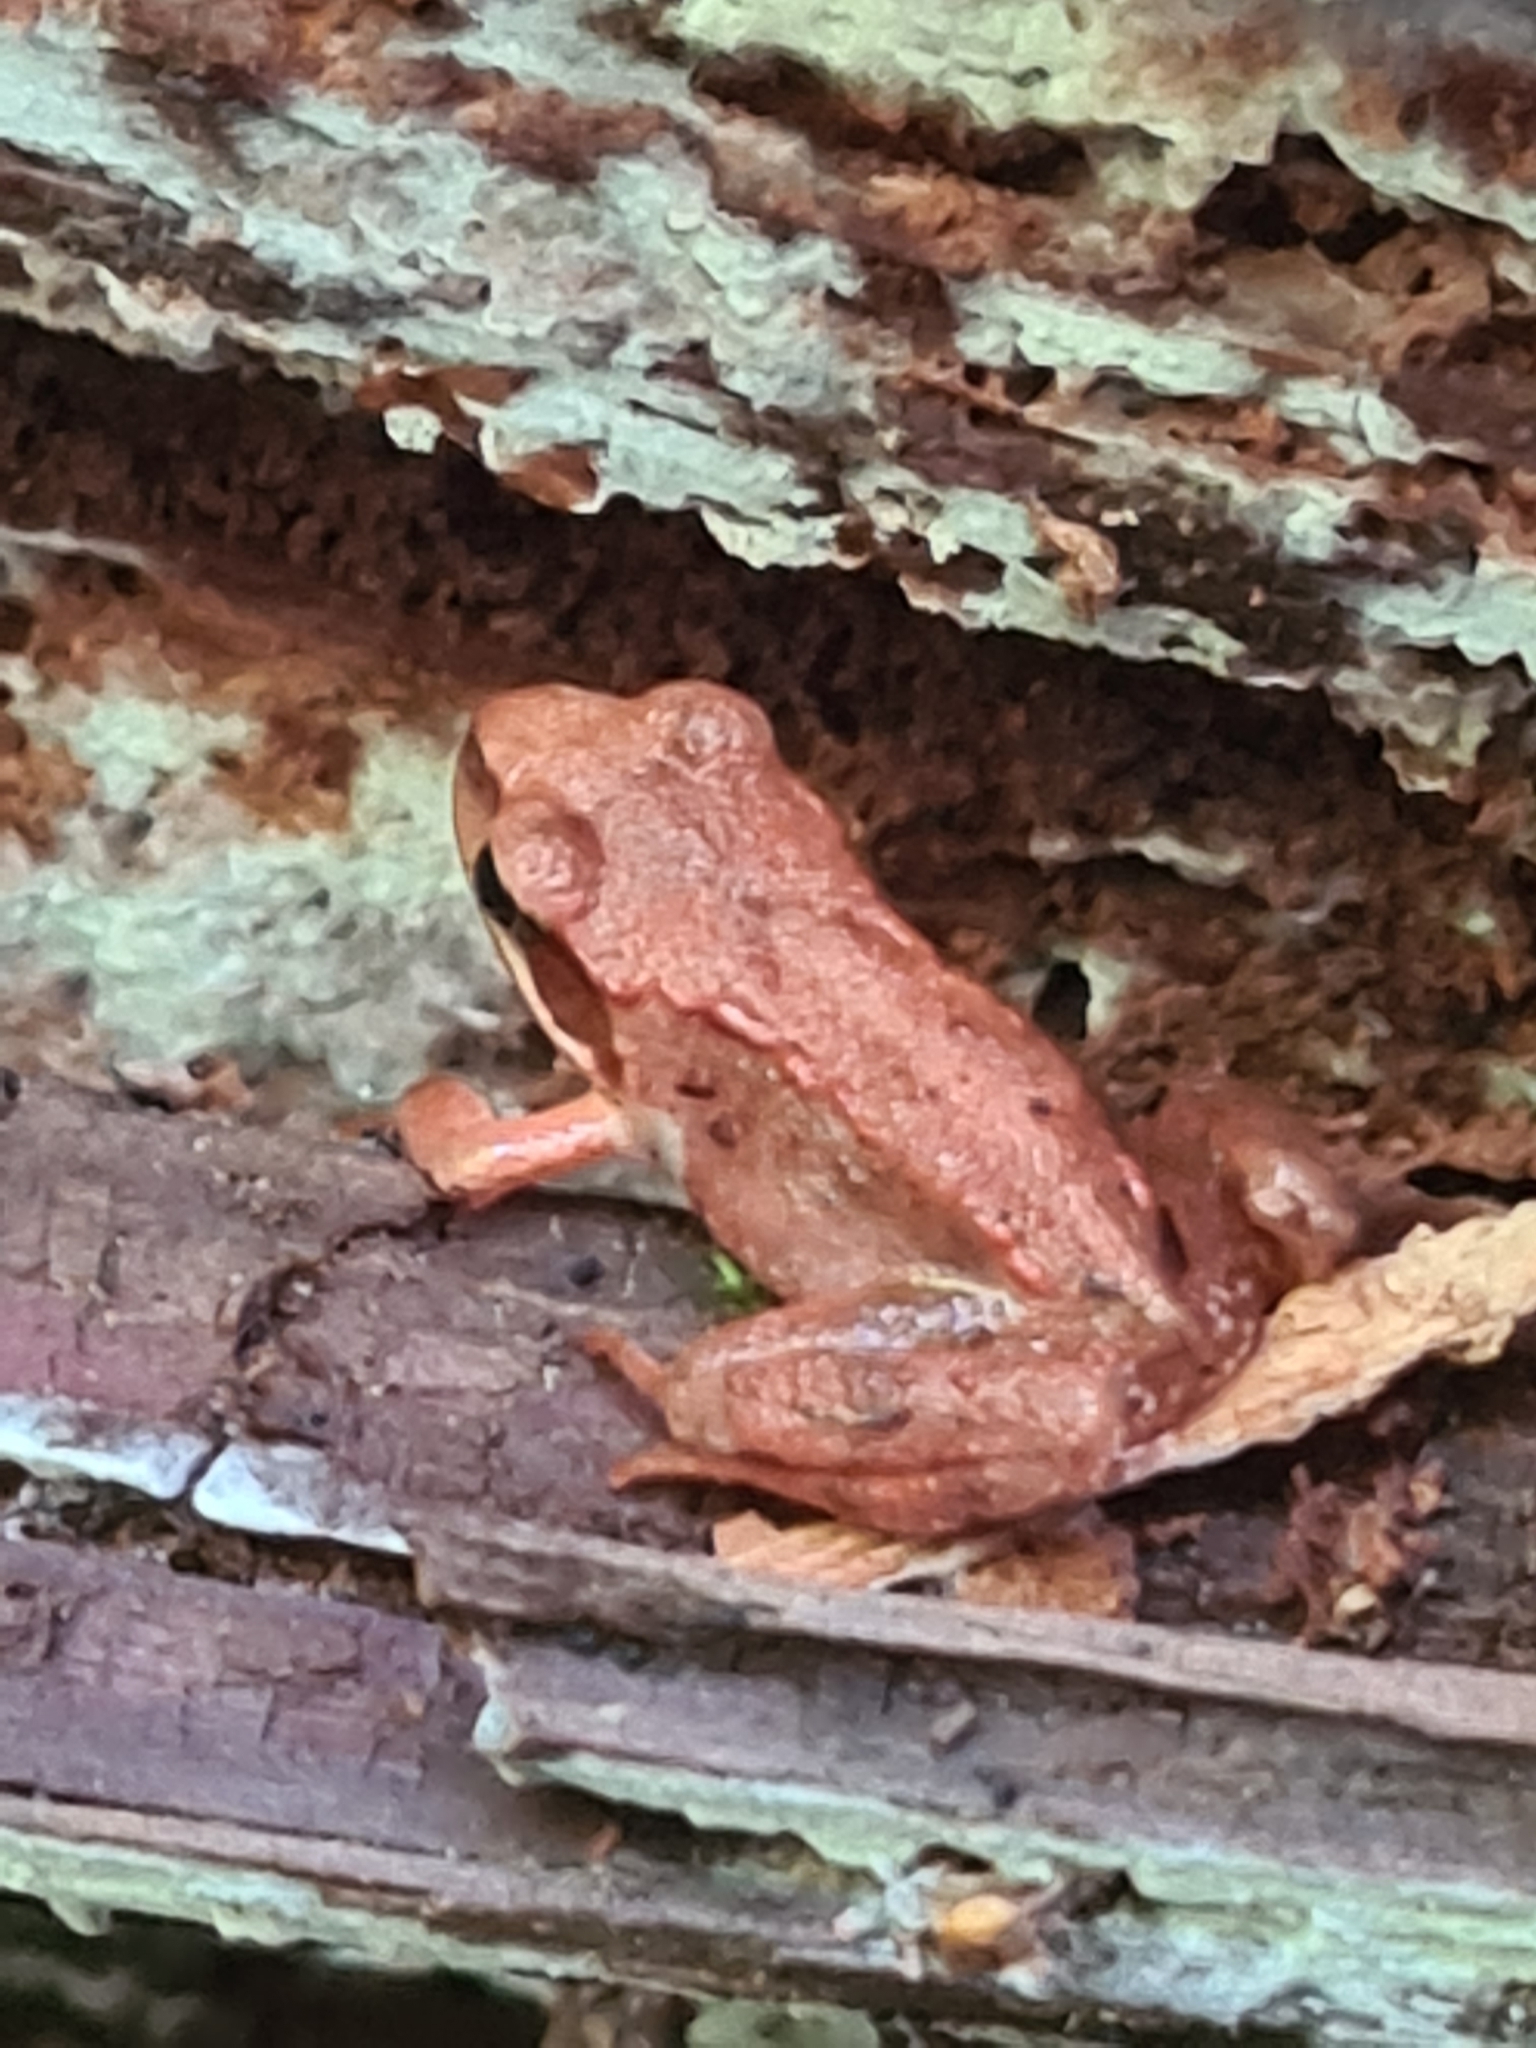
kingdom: Animalia
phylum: Chordata
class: Amphibia
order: Anura
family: Ranidae
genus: Rana
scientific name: Rana temporaria
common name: Common frog
